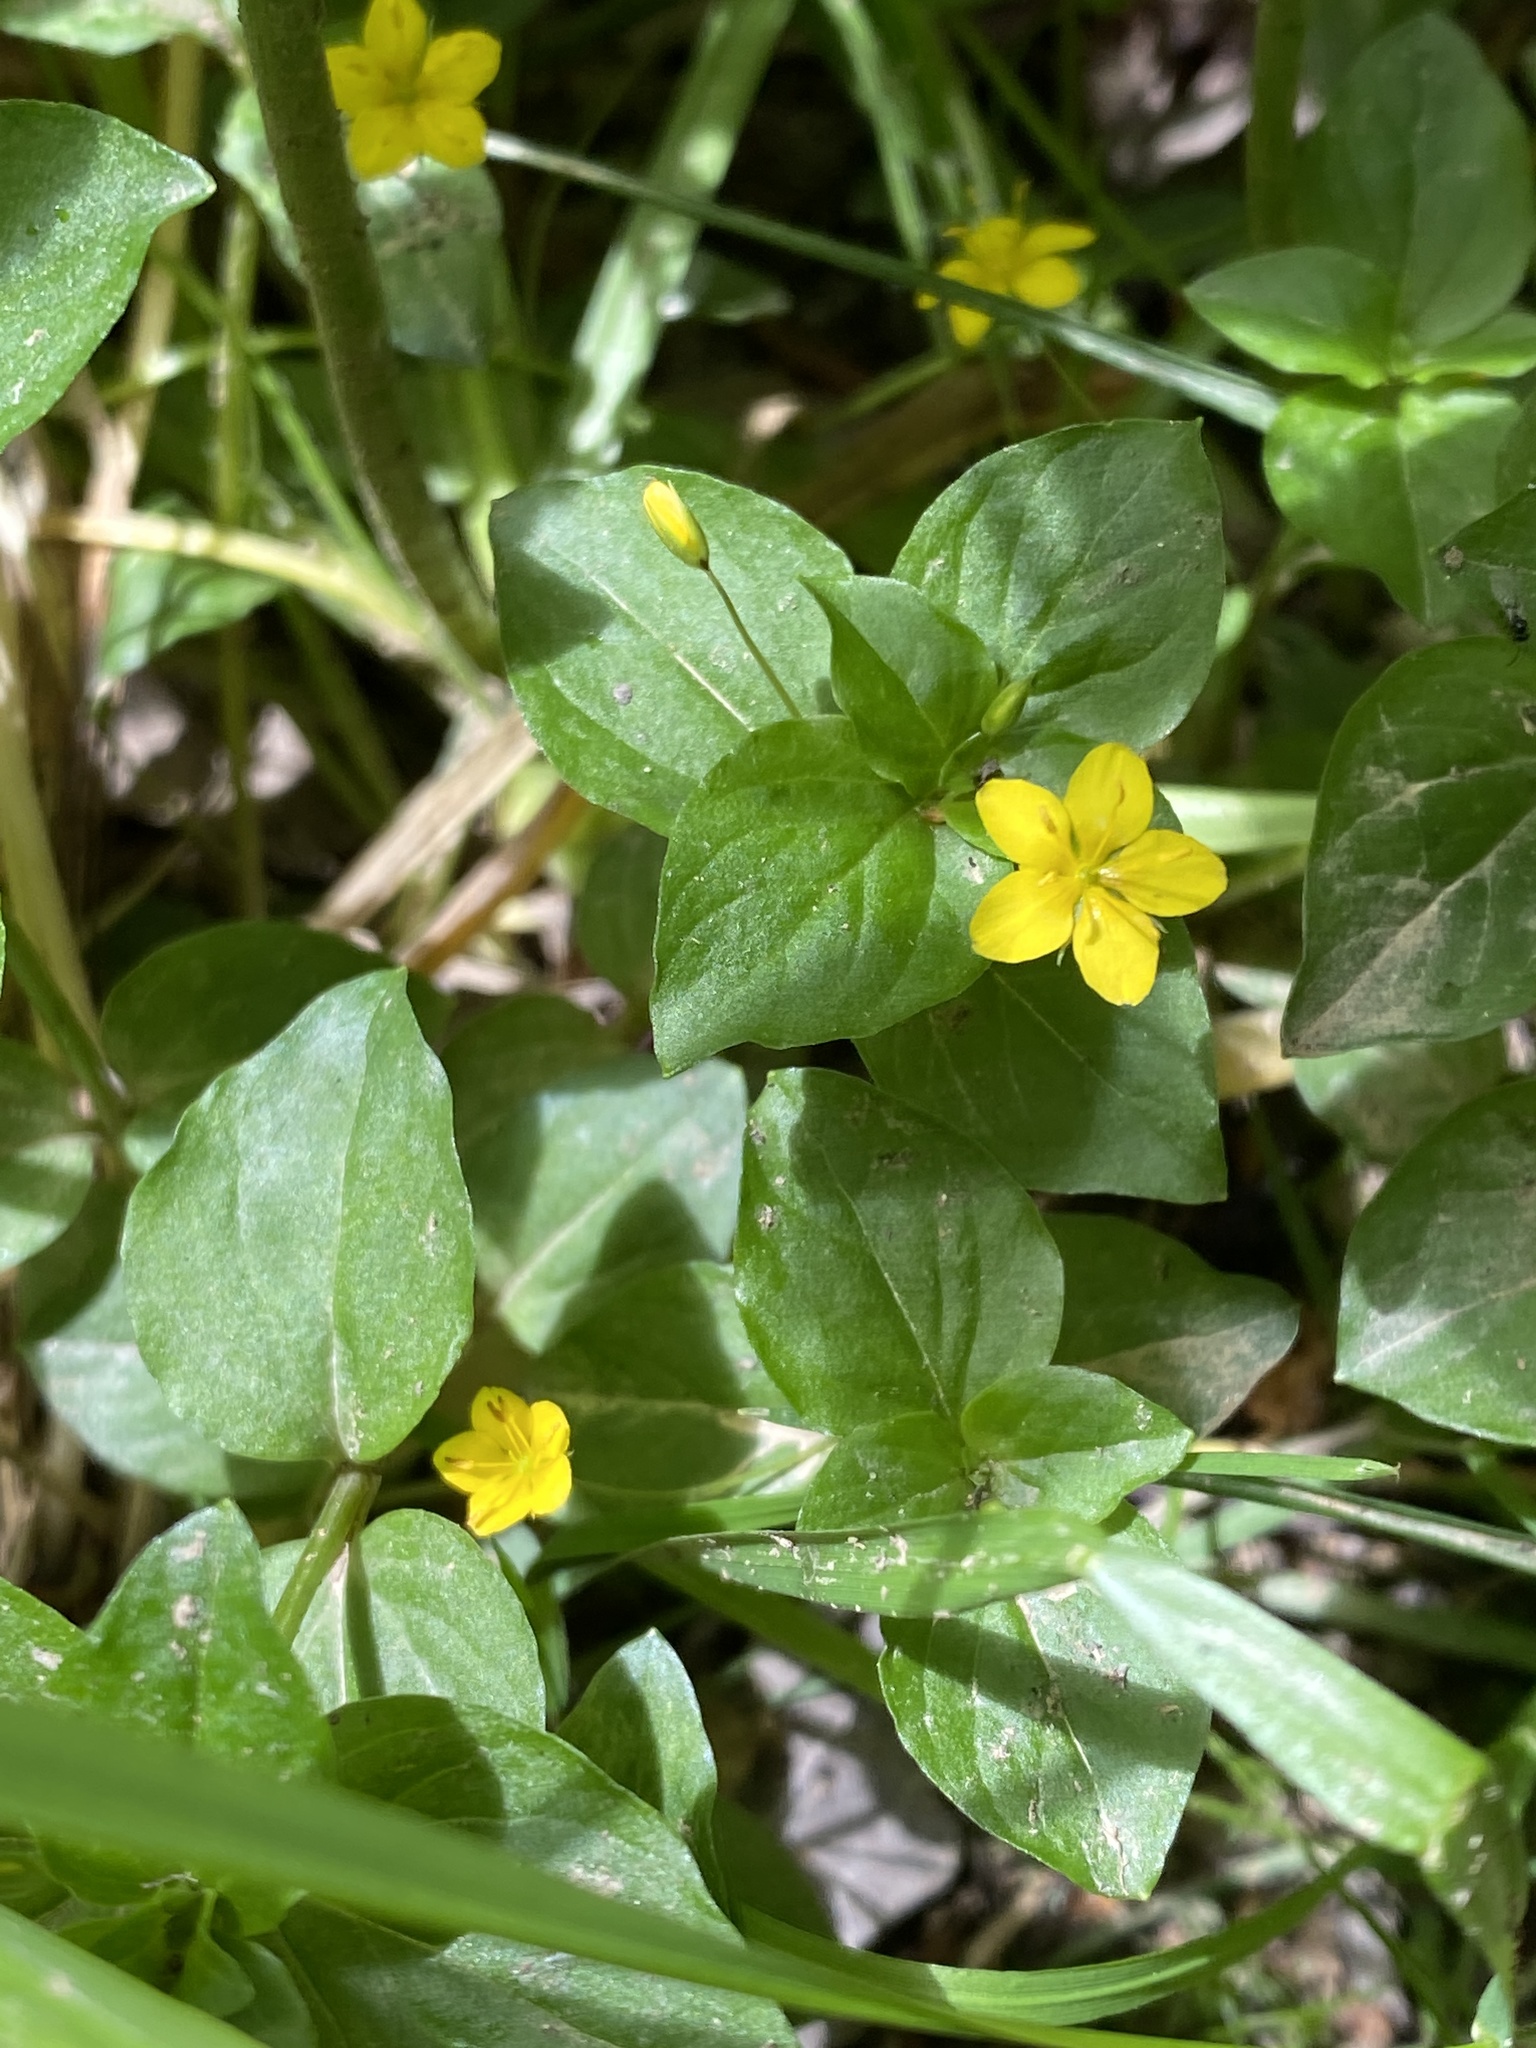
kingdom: Plantae
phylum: Tracheophyta
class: Magnoliopsida
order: Ericales
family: Primulaceae
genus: Lysimachia
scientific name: Lysimachia nemorum
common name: Yellow pimpernel
